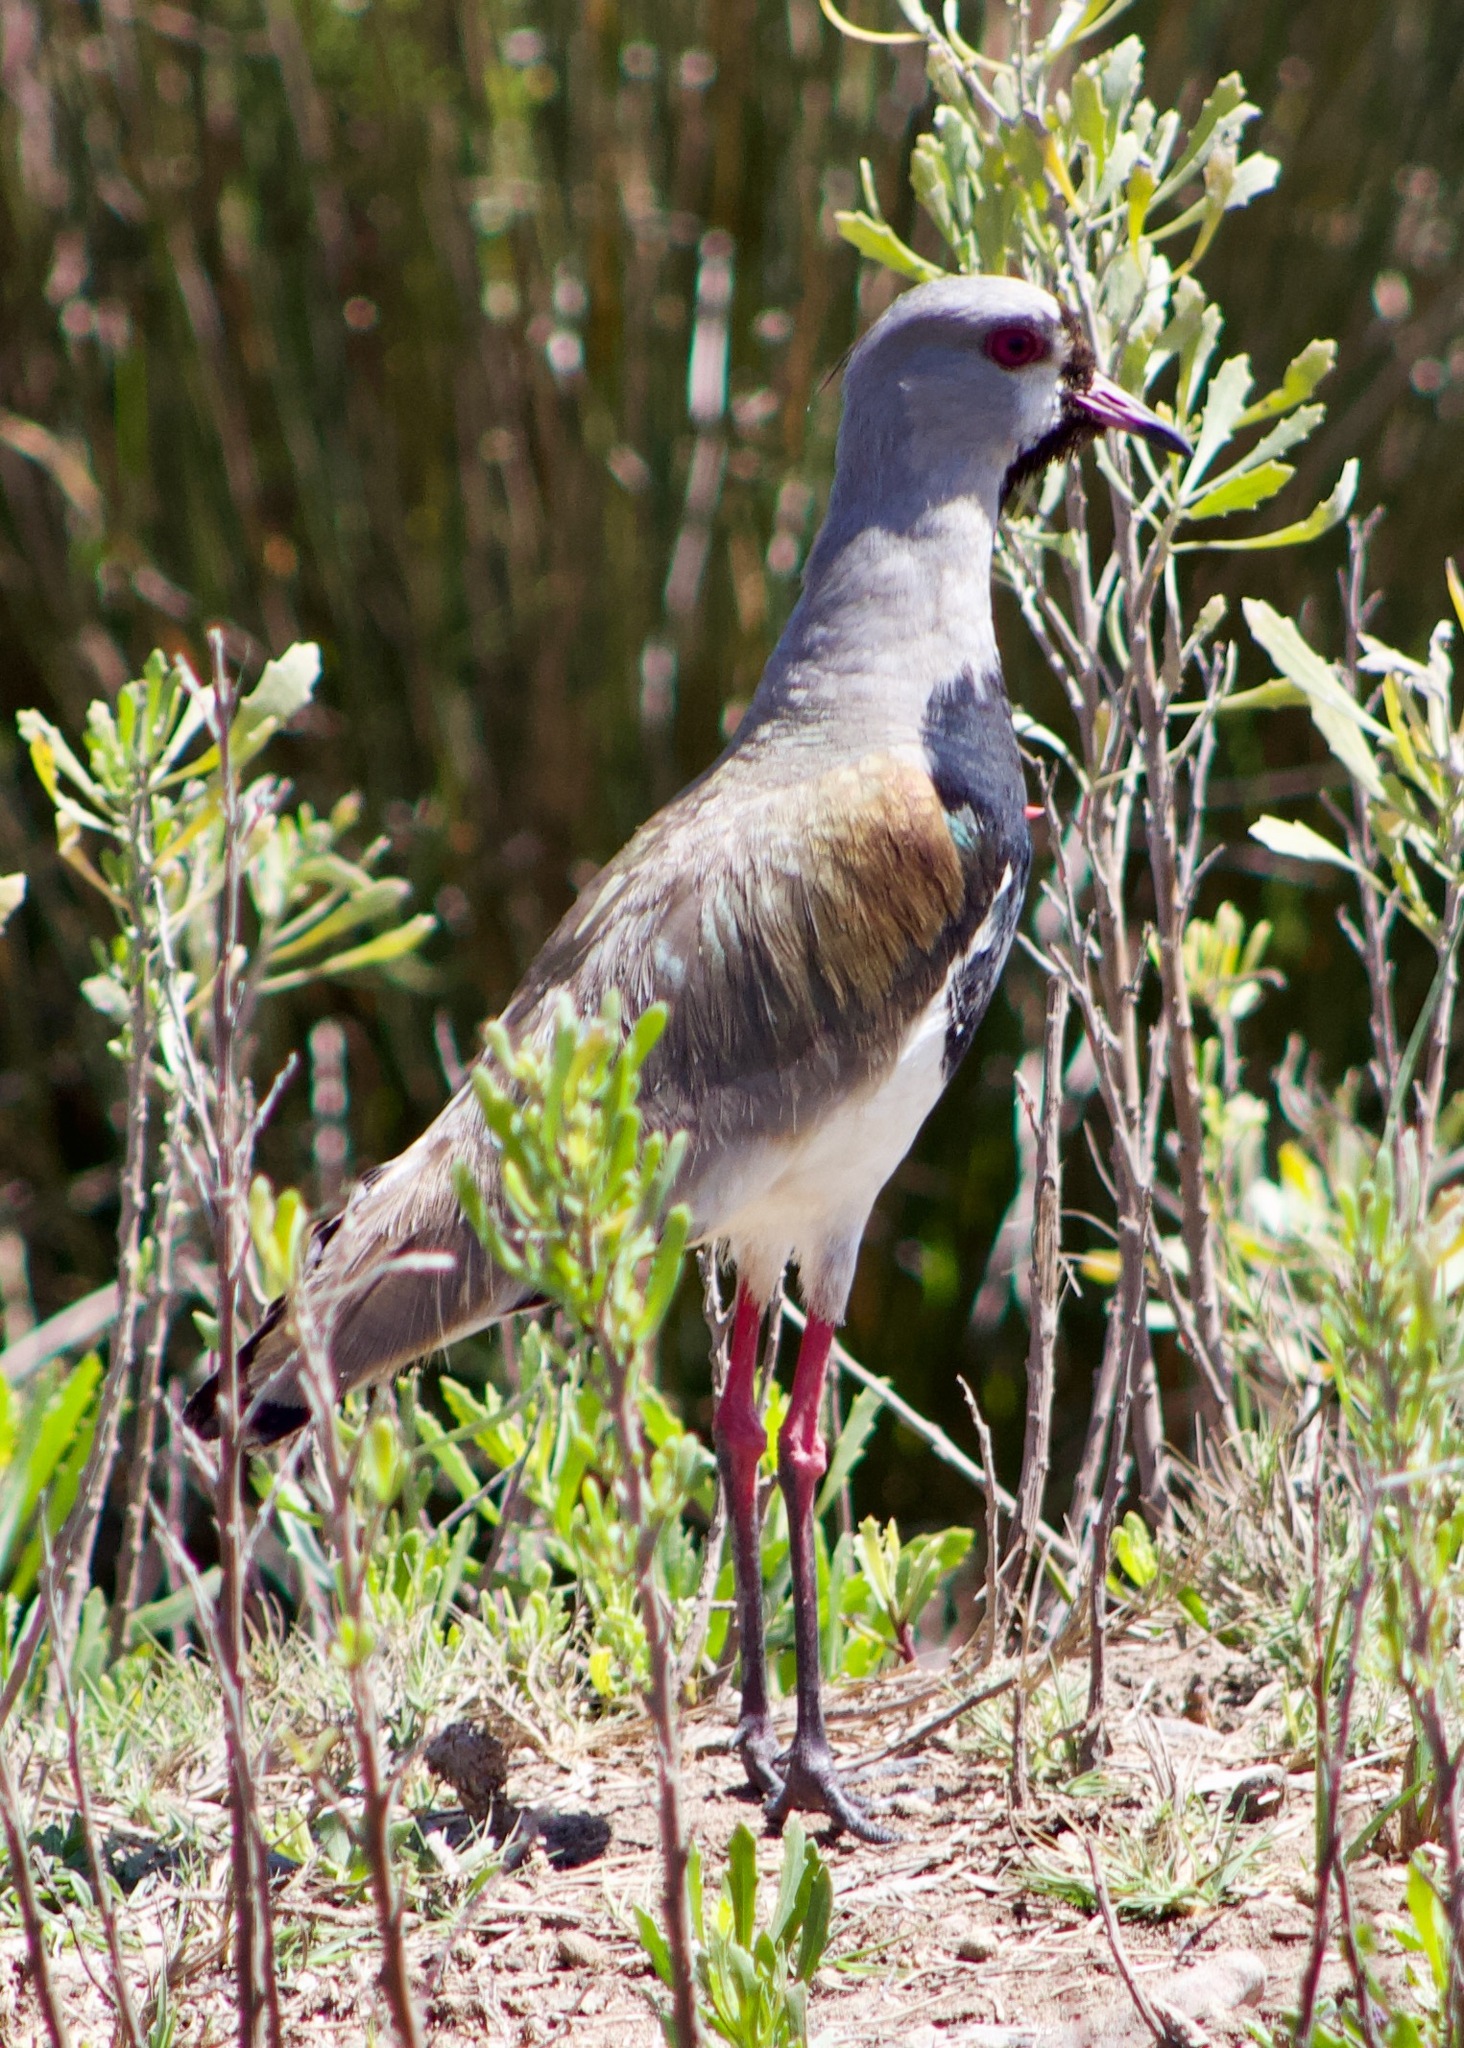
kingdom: Animalia
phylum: Chordata
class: Aves
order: Charadriiformes
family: Charadriidae
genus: Vanellus
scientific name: Vanellus chilensis
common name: Southern lapwing
